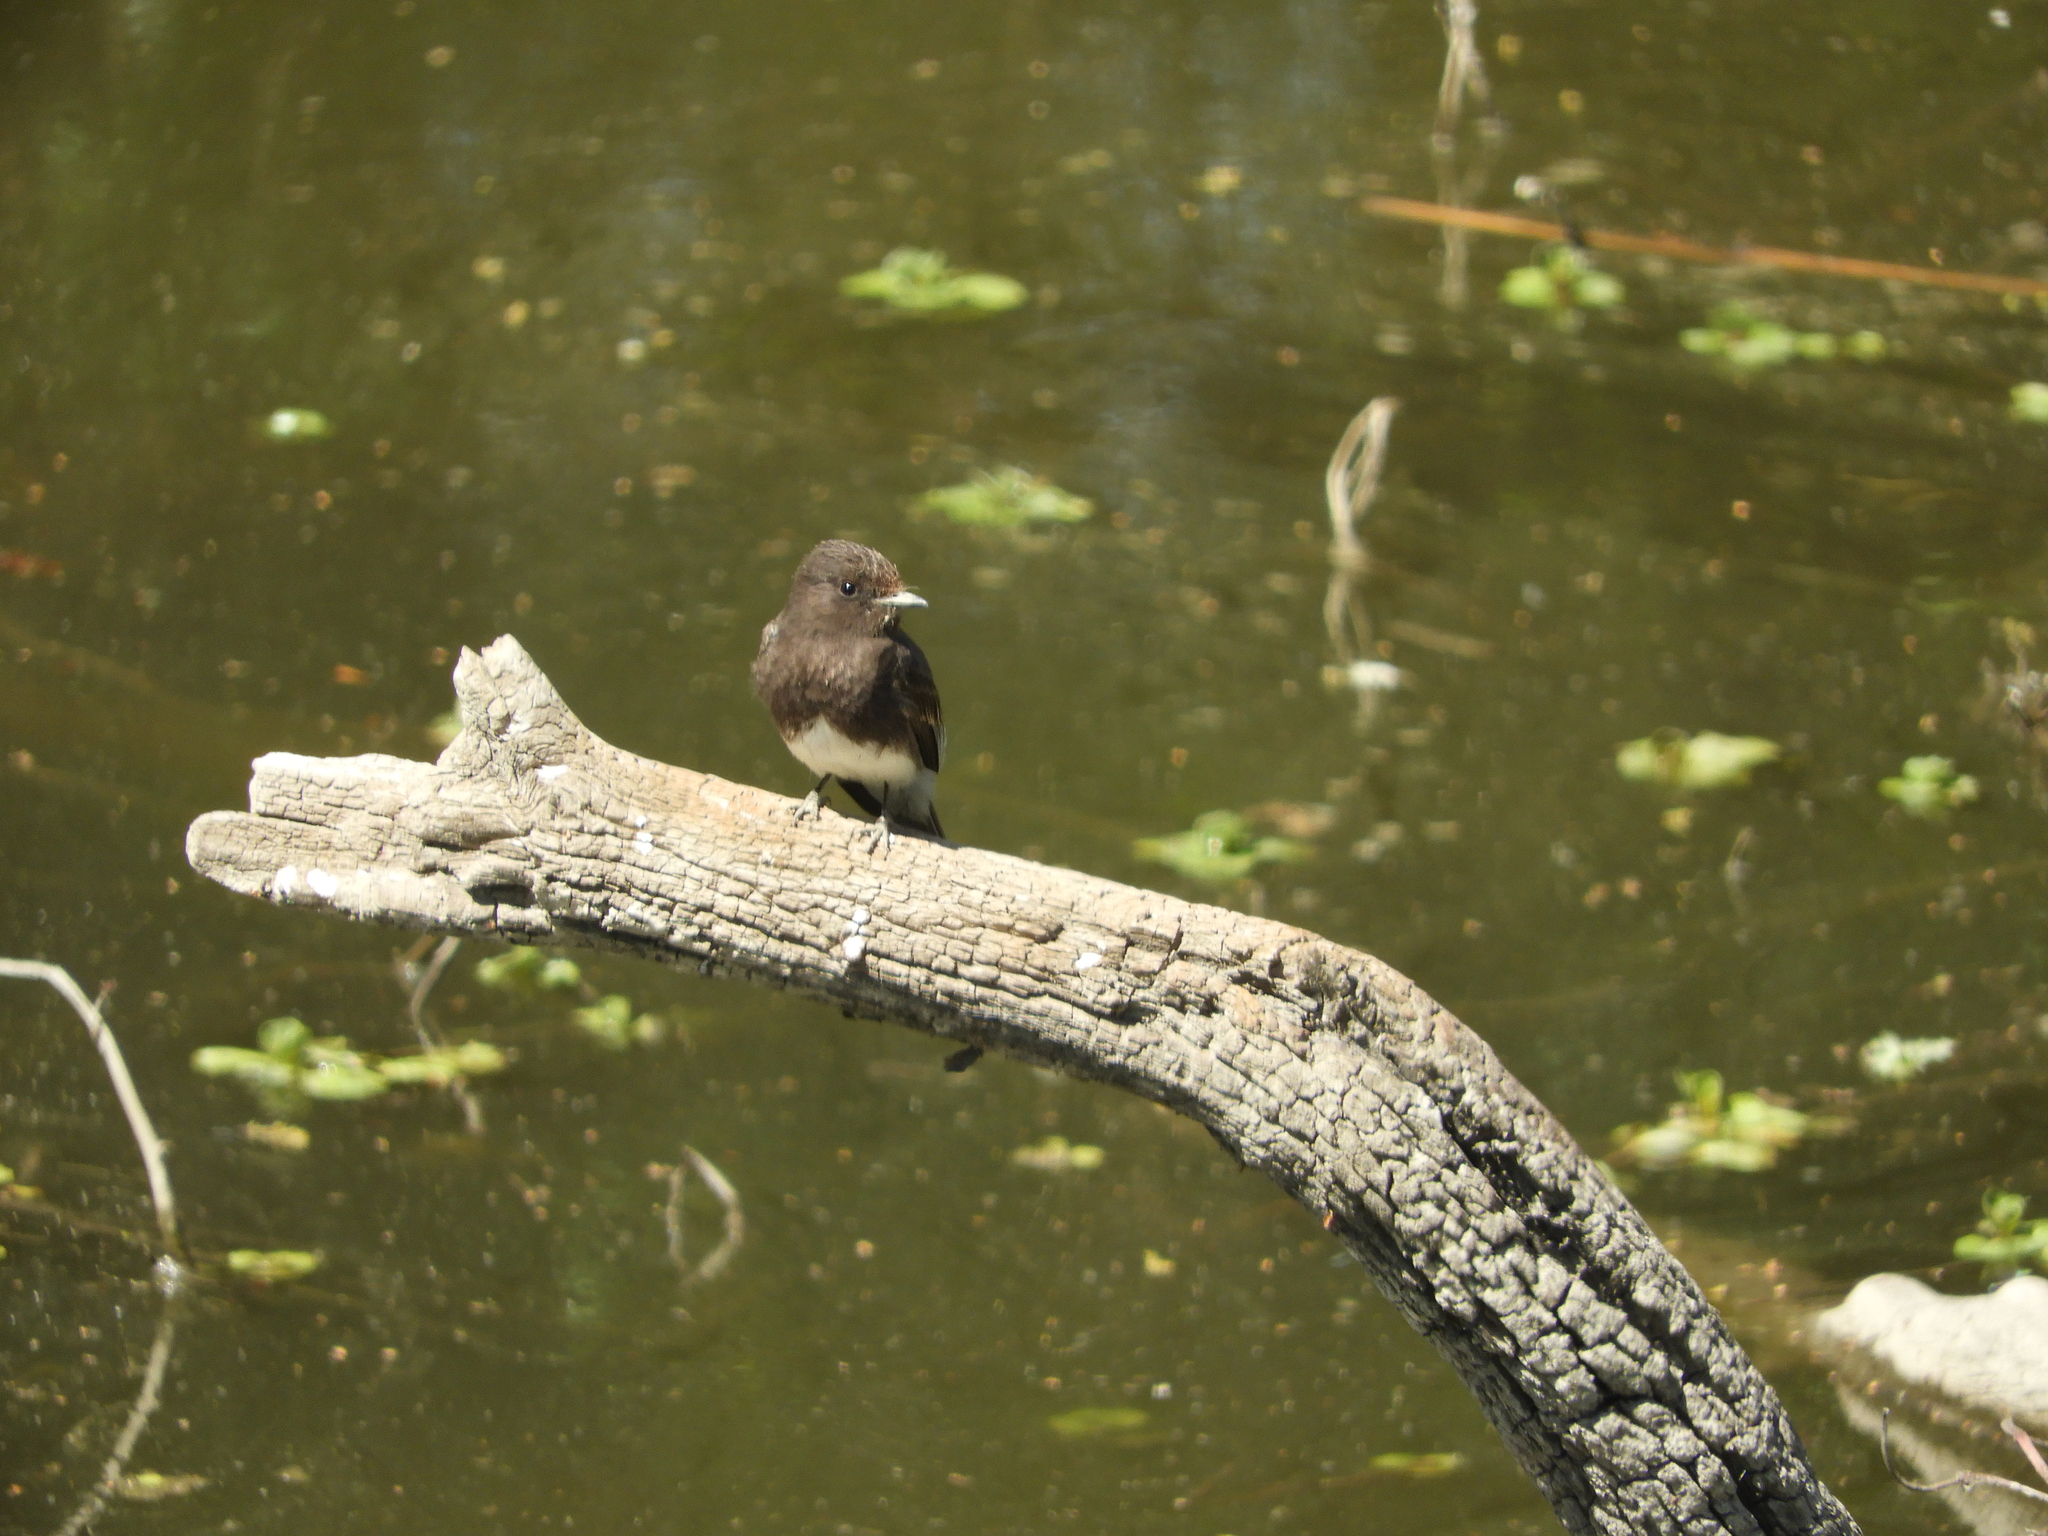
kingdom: Animalia
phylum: Chordata
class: Aves
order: Passeriformes
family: Tyrannidae
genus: Sayornis
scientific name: Sayornis nigricans
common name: Black phoebe
